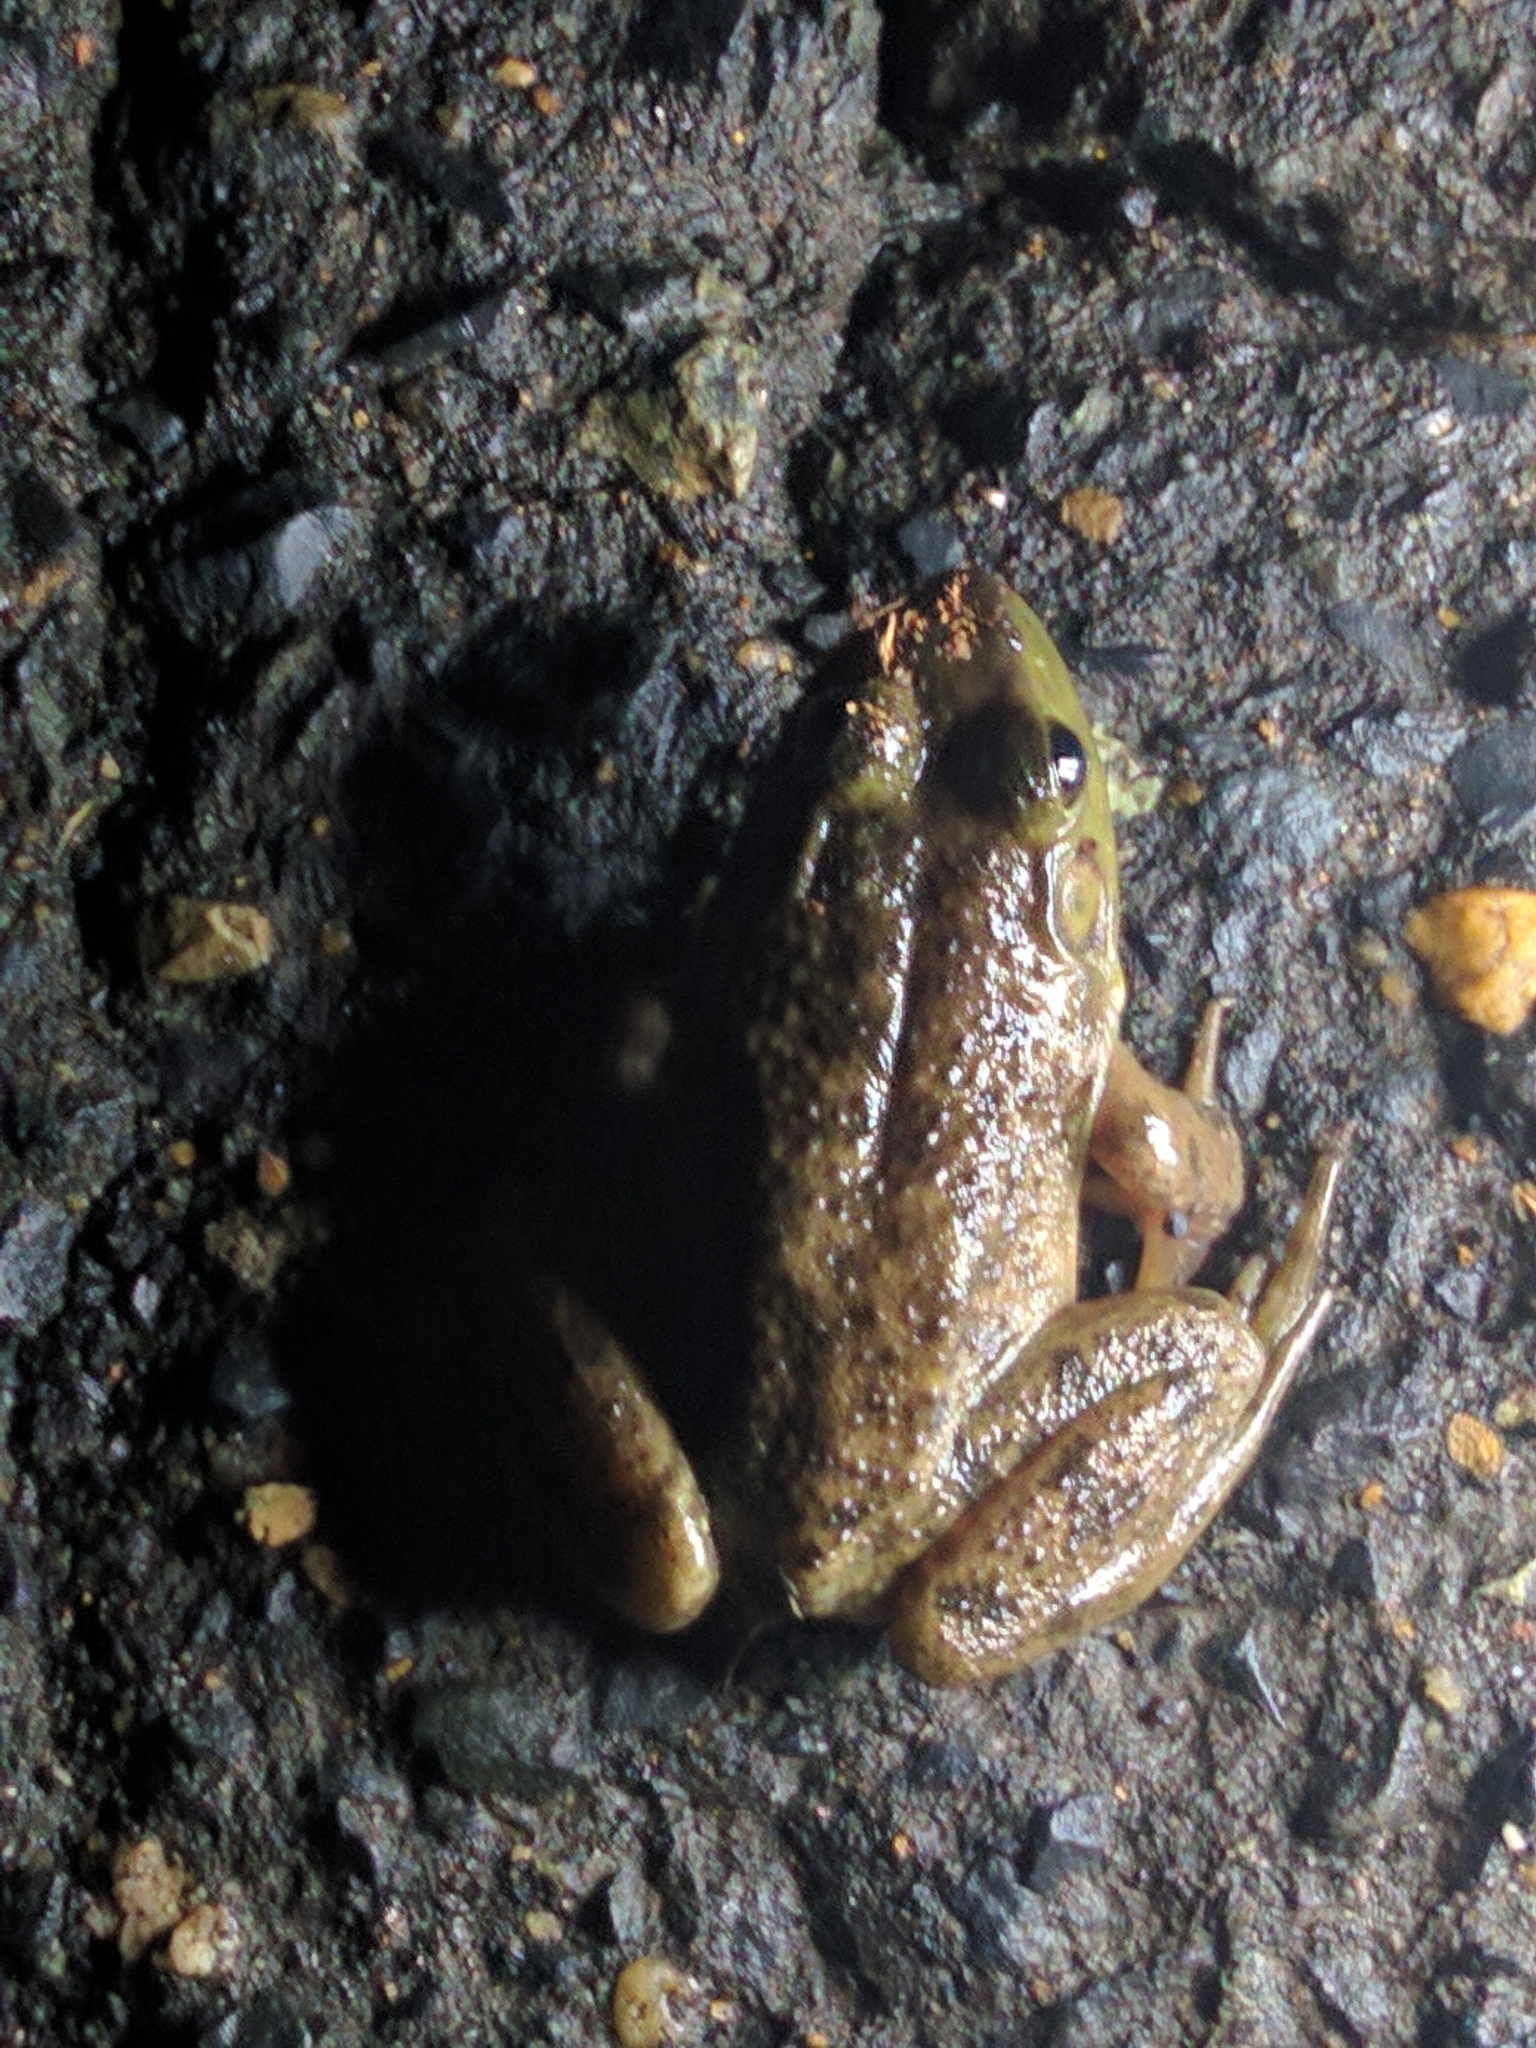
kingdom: Animalia
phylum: Chordata
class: Amphibia
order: Anura
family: Ranidae
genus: Lithobates
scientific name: Lithobates catesbeianus
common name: American bullfrog
